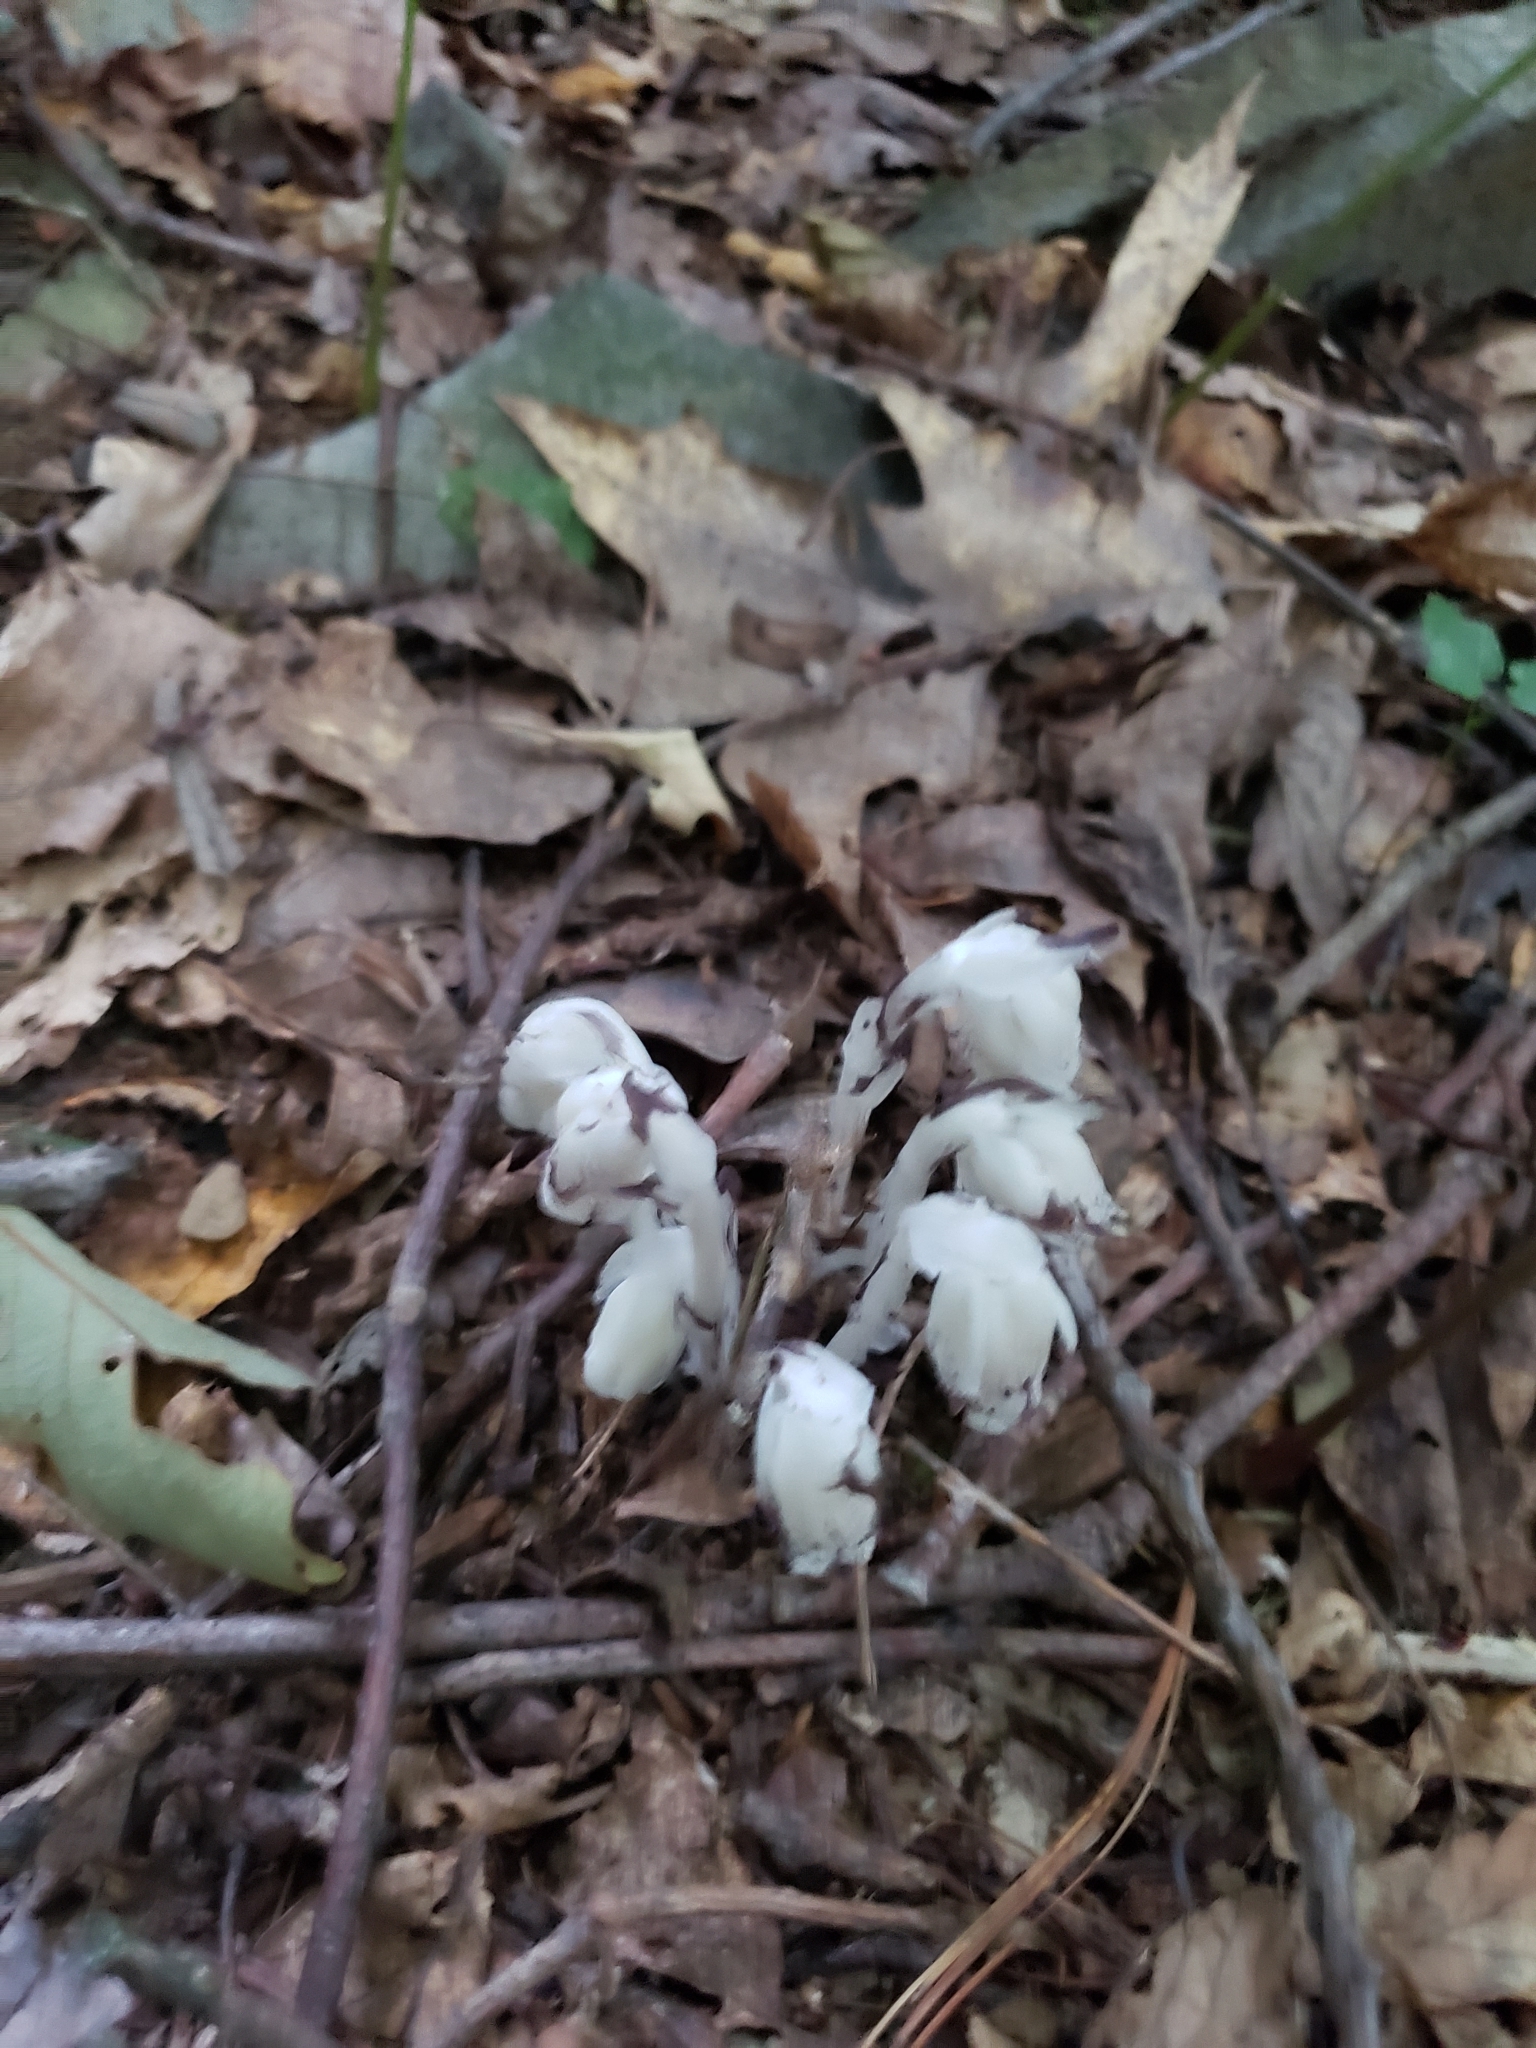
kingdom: Plantae
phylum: Tracheophyta
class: Magnoliopsida
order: Ericales
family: Ericaceae
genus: Monotropa
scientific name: Monotropa uniflora
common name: Convulsion root
